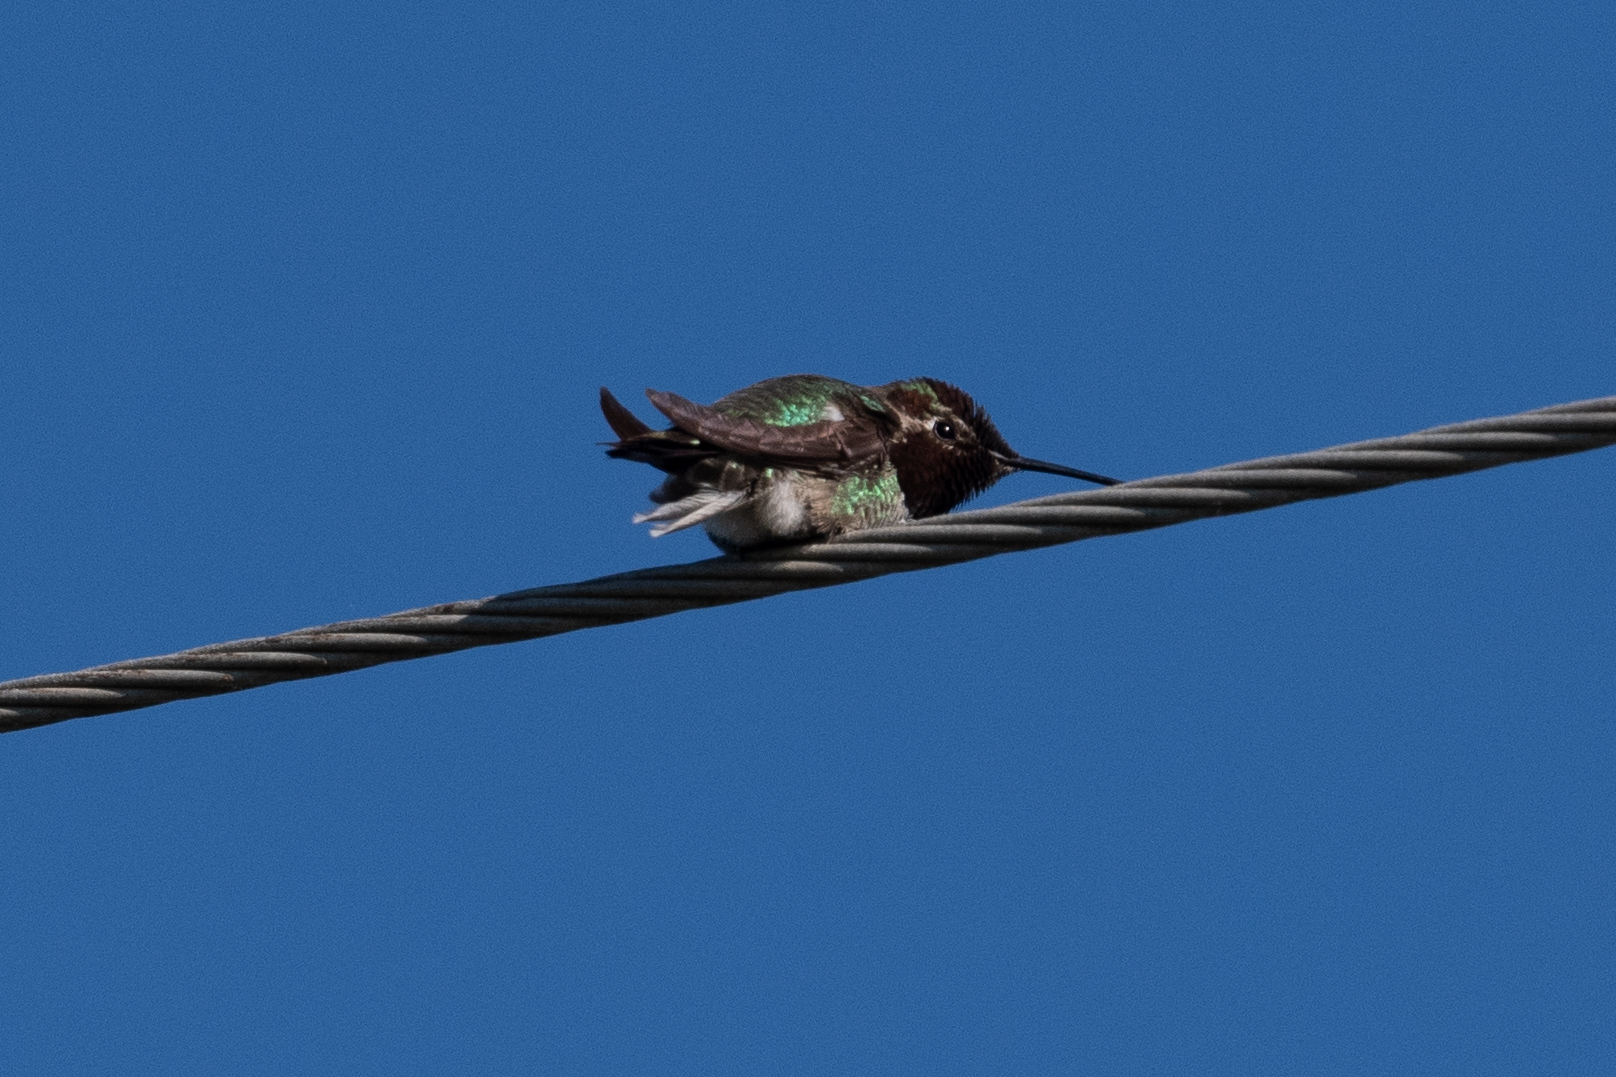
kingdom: Animalia
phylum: Chordata
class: Aves
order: Apodiformes
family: Trochilidae
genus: Calypte
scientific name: Calypte anna
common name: Anna's hummingbird
